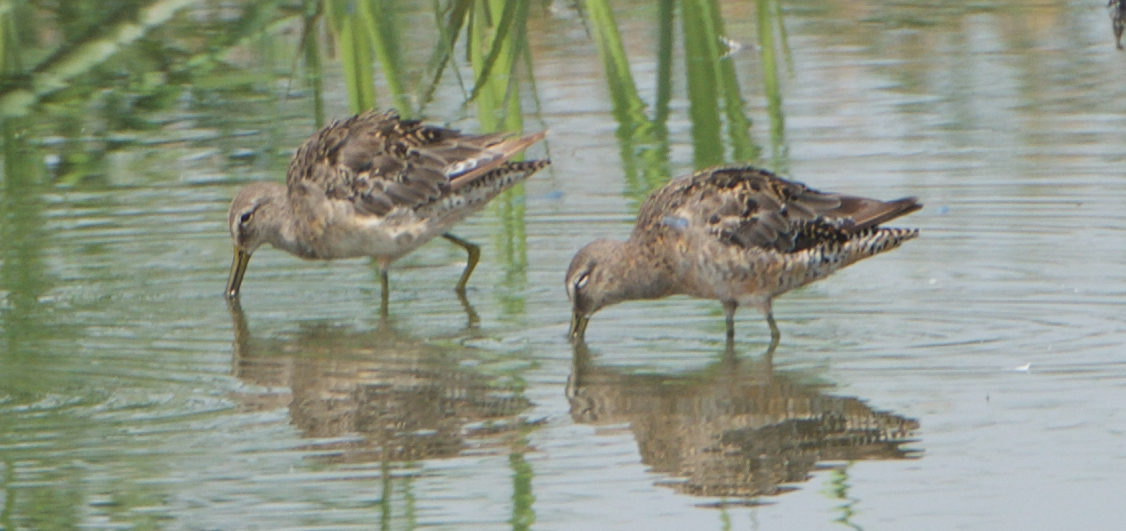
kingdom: Animalia
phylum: Chordata
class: Aves
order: Charadriiformes
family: Scolopacidae
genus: Limnodromus
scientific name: Limnodromus scolopaceus
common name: Long-billed dowitcher
